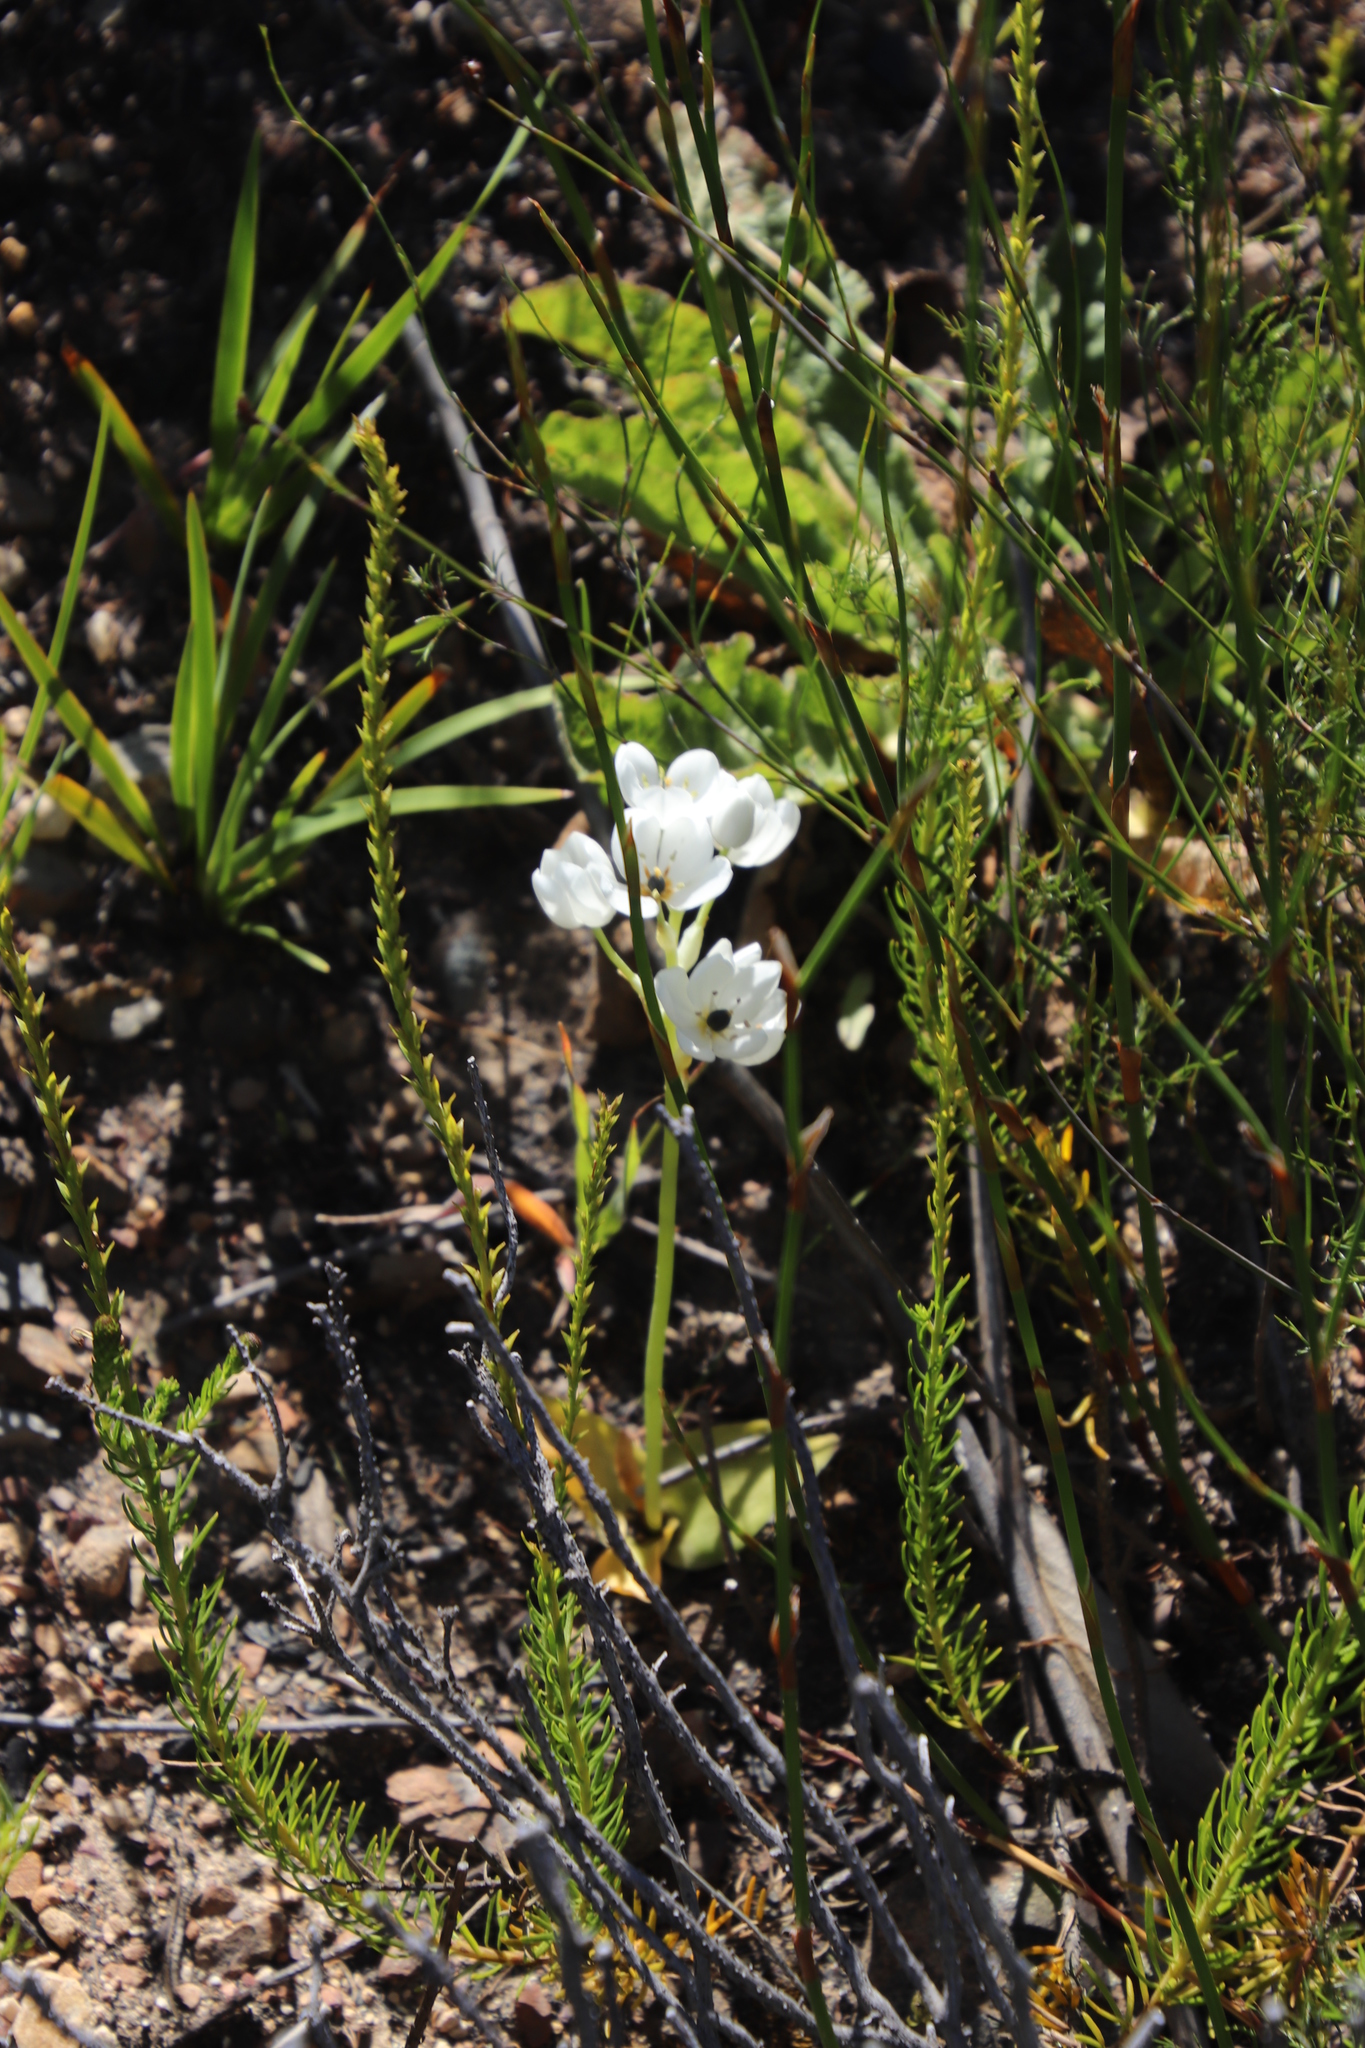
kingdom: Plantae
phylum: Tracheophyta
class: Liliopsida
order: Asparagales
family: Asparagaceae
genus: Ornithogalum
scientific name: Ornithogalum thyrsoides
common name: Chincherinchee
